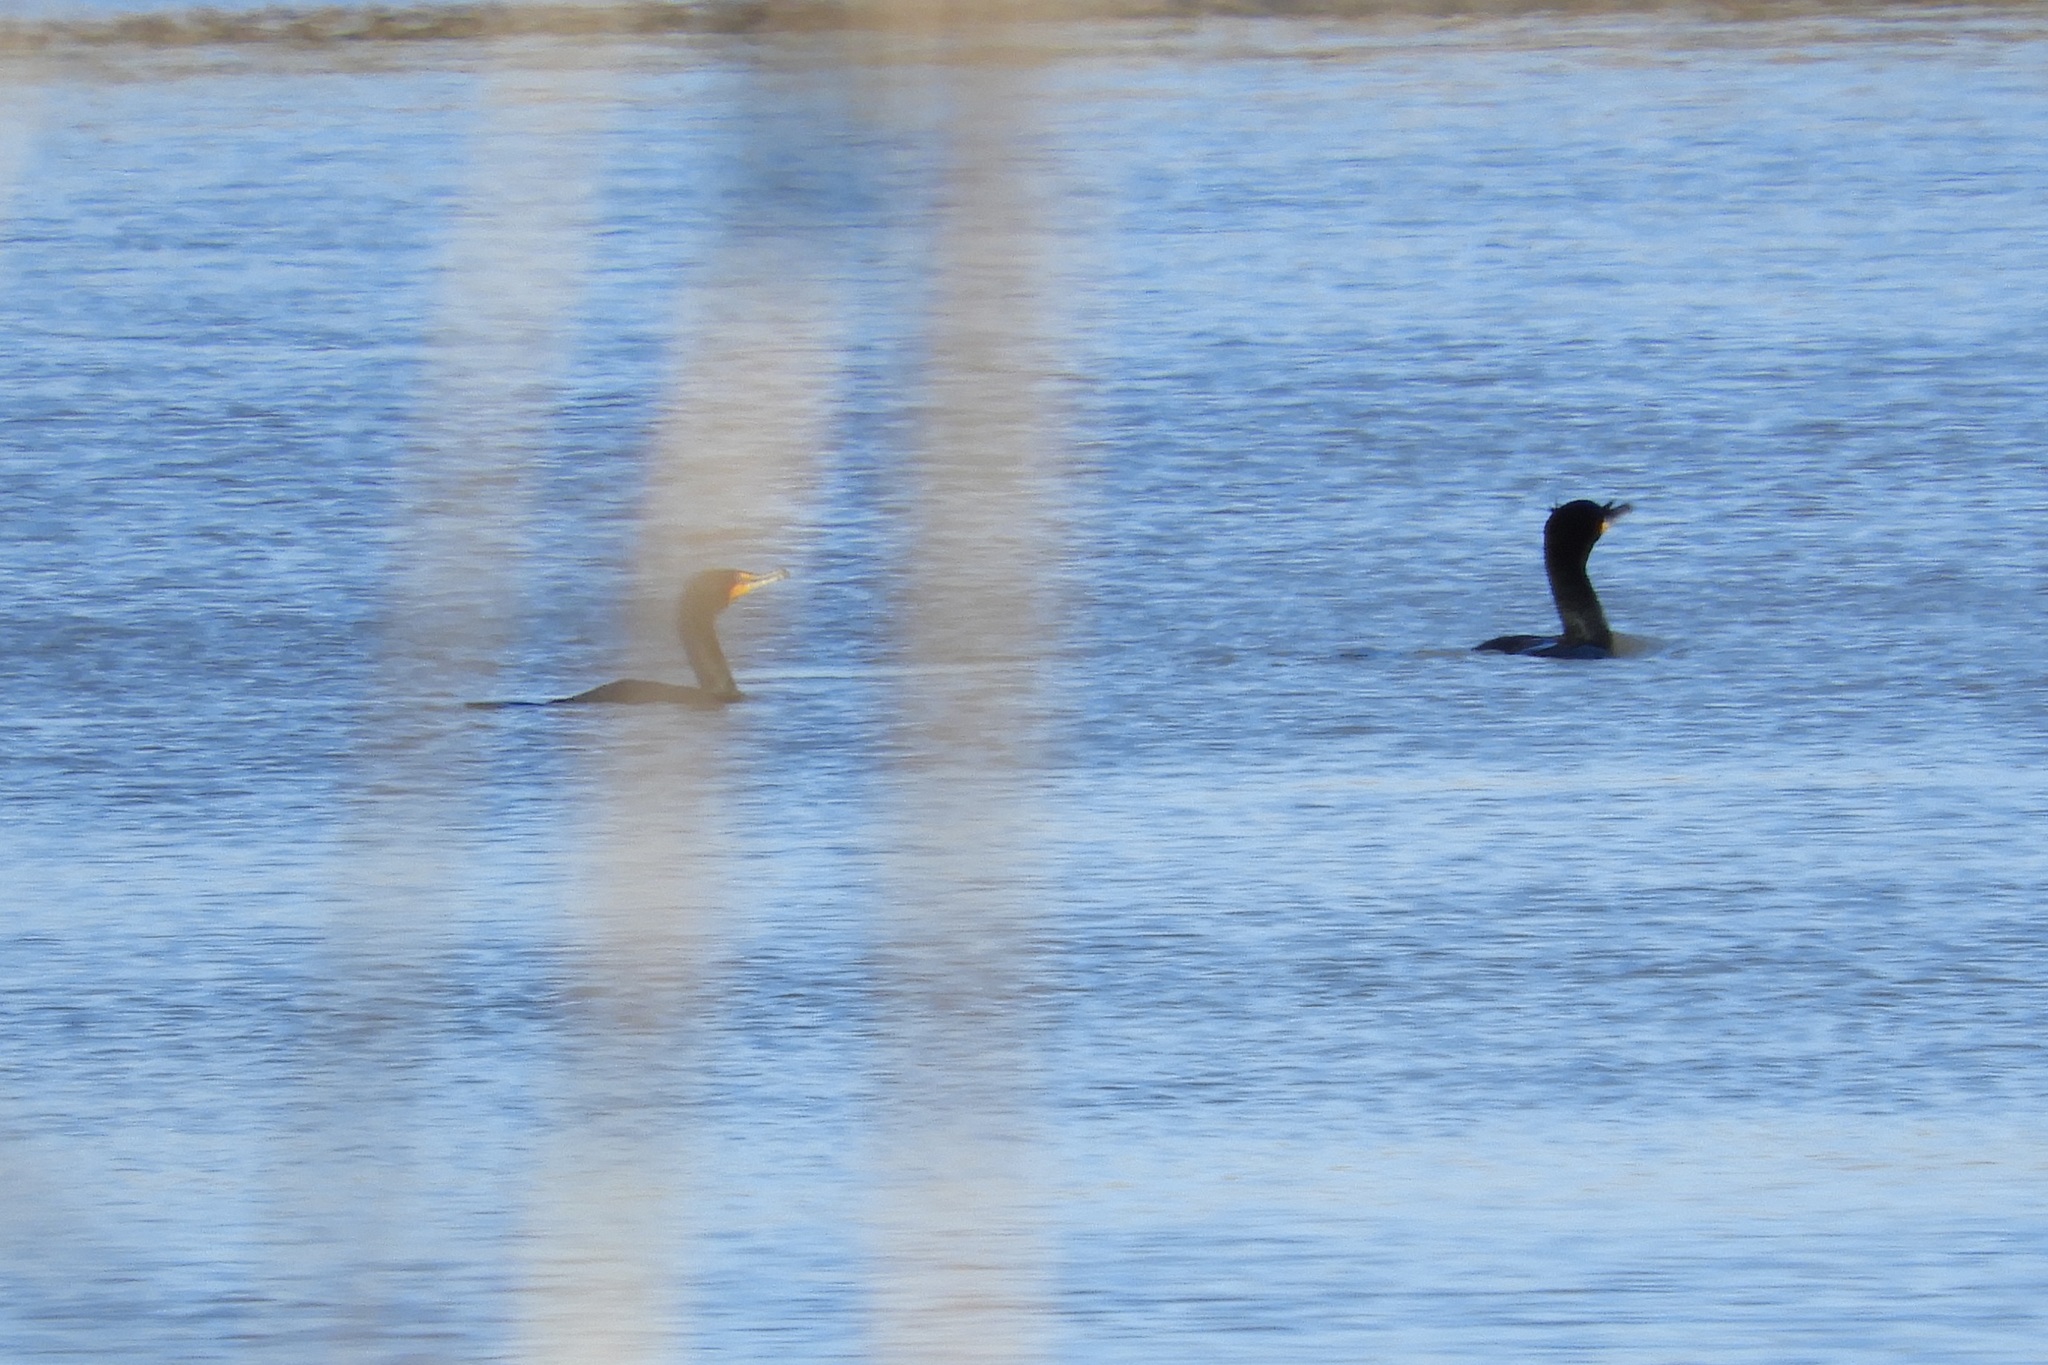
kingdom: Animalia
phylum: Chordata
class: Aves
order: Suliformes
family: Phalacrocoracidae
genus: Phalacrocorax
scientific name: Phalacrocorax auritus
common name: Double-crested cormorant
